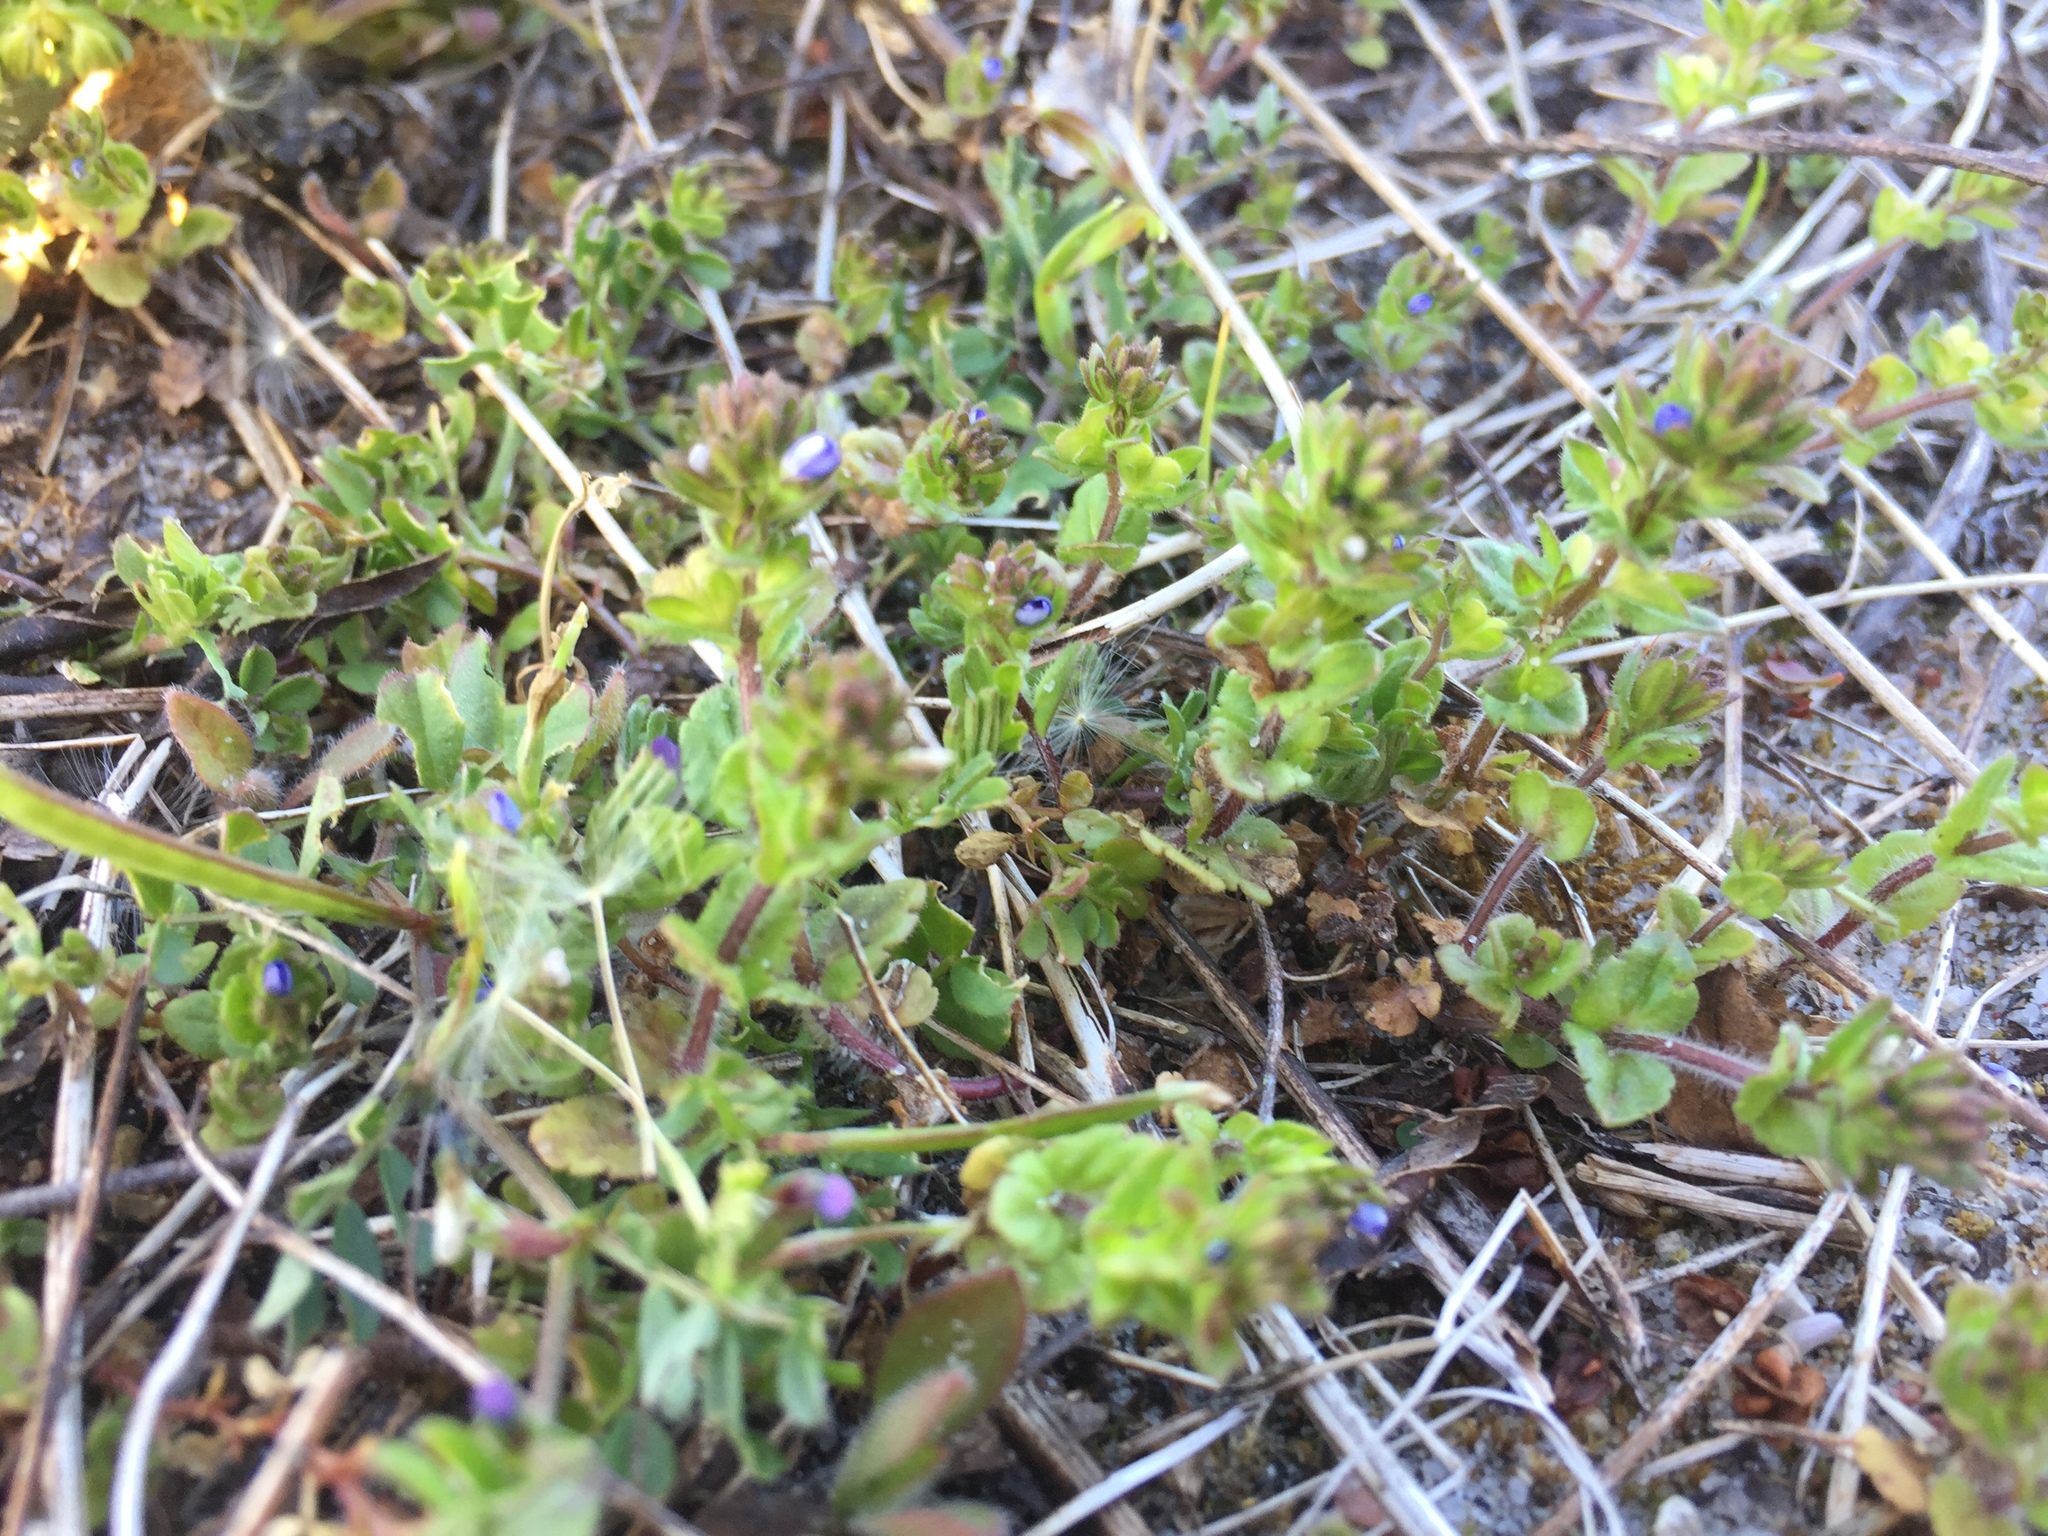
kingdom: Plantae
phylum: Tracheophyta
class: Magnoliopsida
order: Lamiales
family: Plantaginaceae
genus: Veronica
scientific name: Veronica arvensis
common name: Corn speedwell
